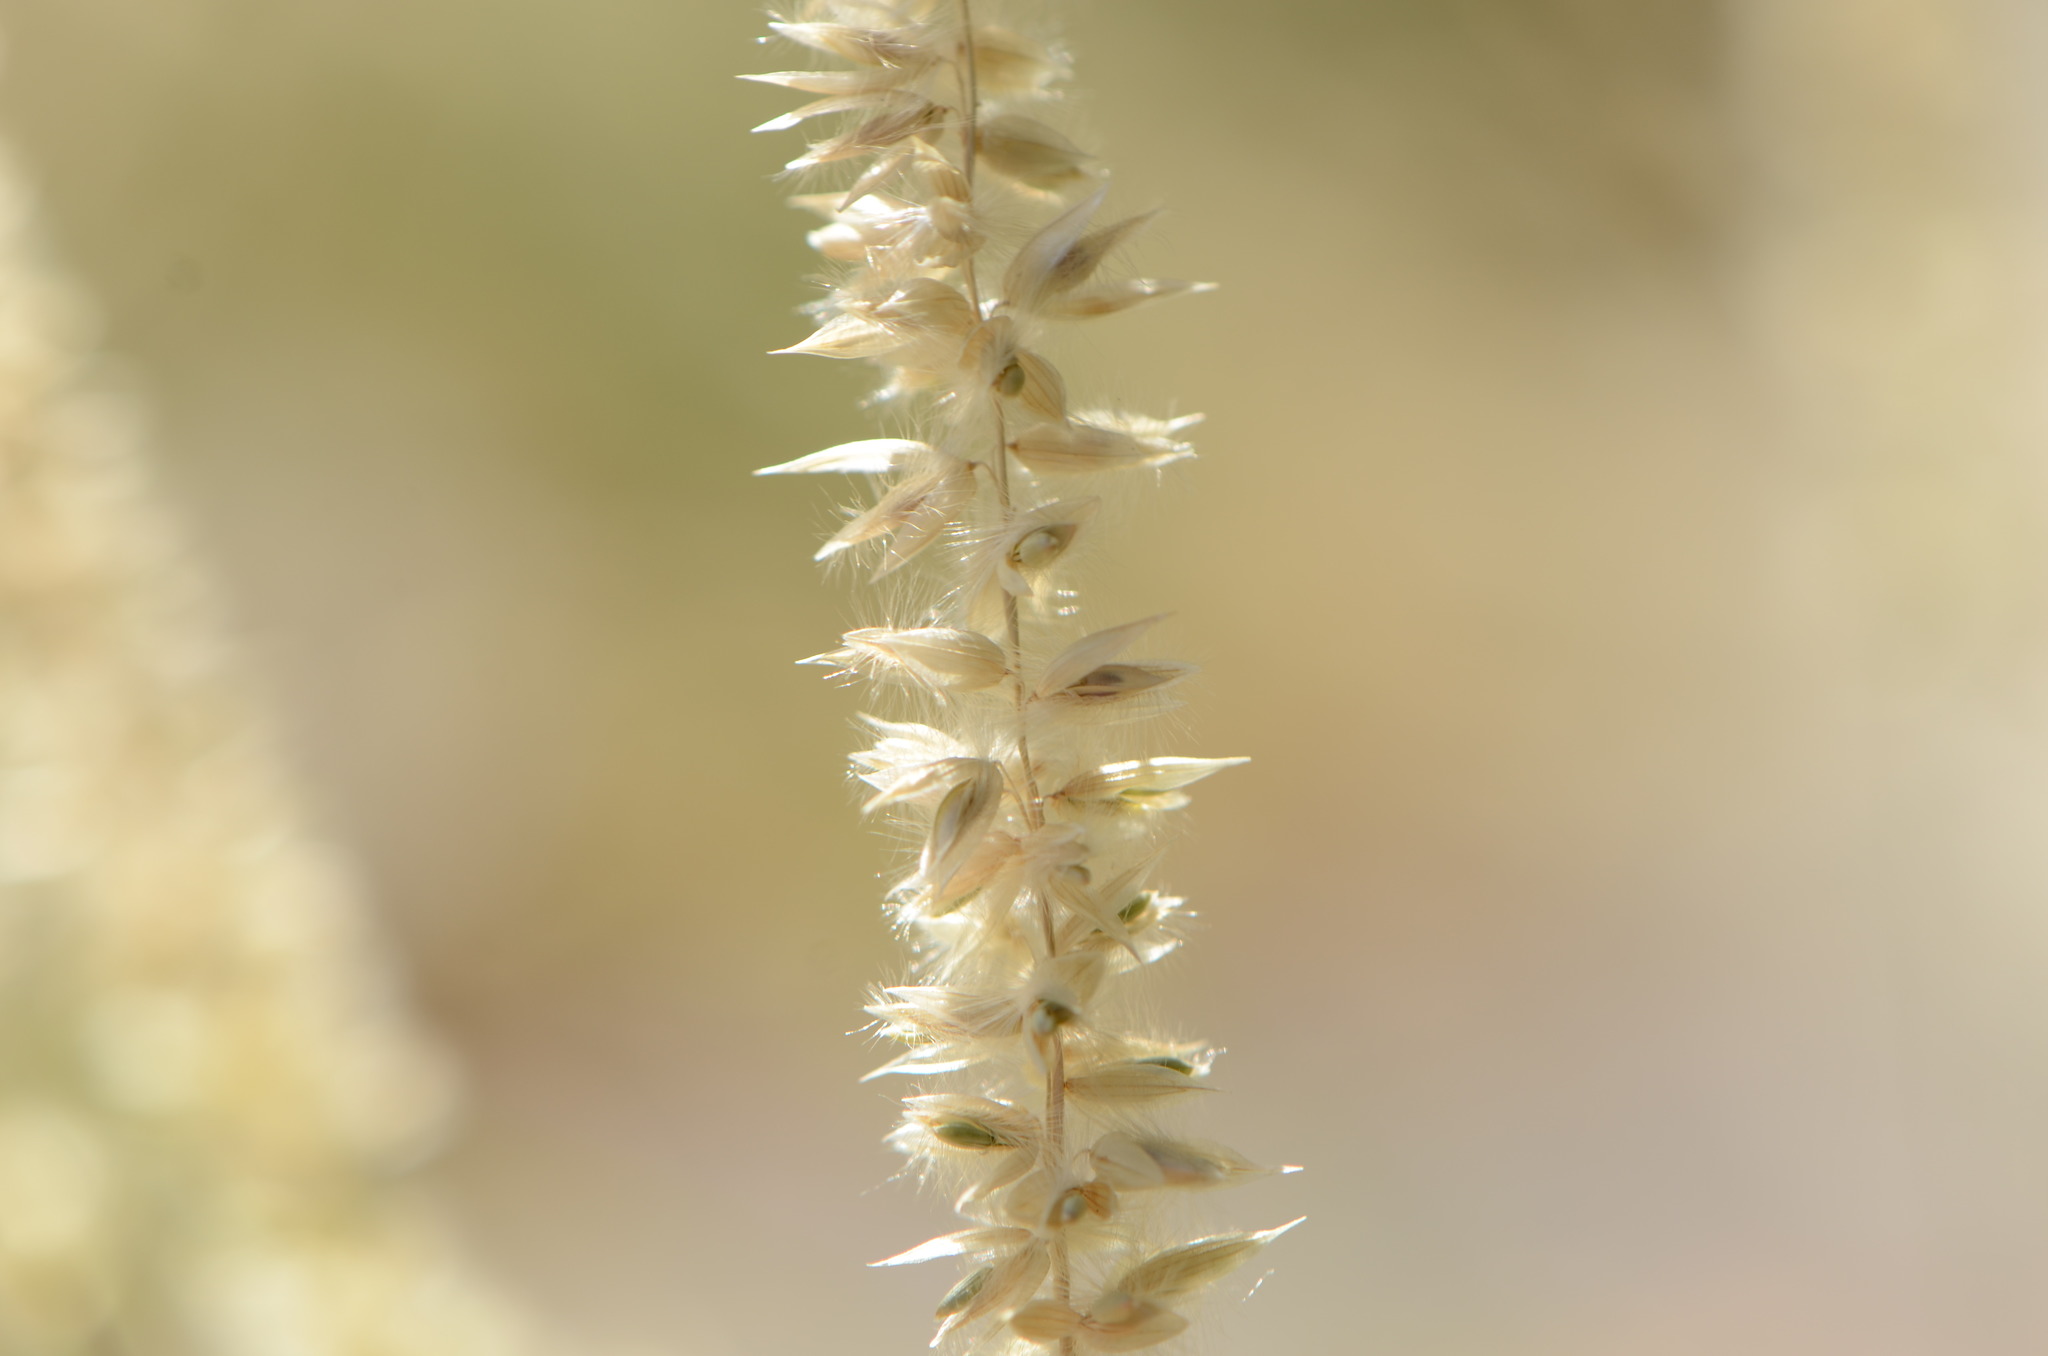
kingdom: Plantae
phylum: Tracheophyta
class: Liliopsida
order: Poales
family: Poaceae
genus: Melica
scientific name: Melica ciliata
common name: Hairy melicgrass
